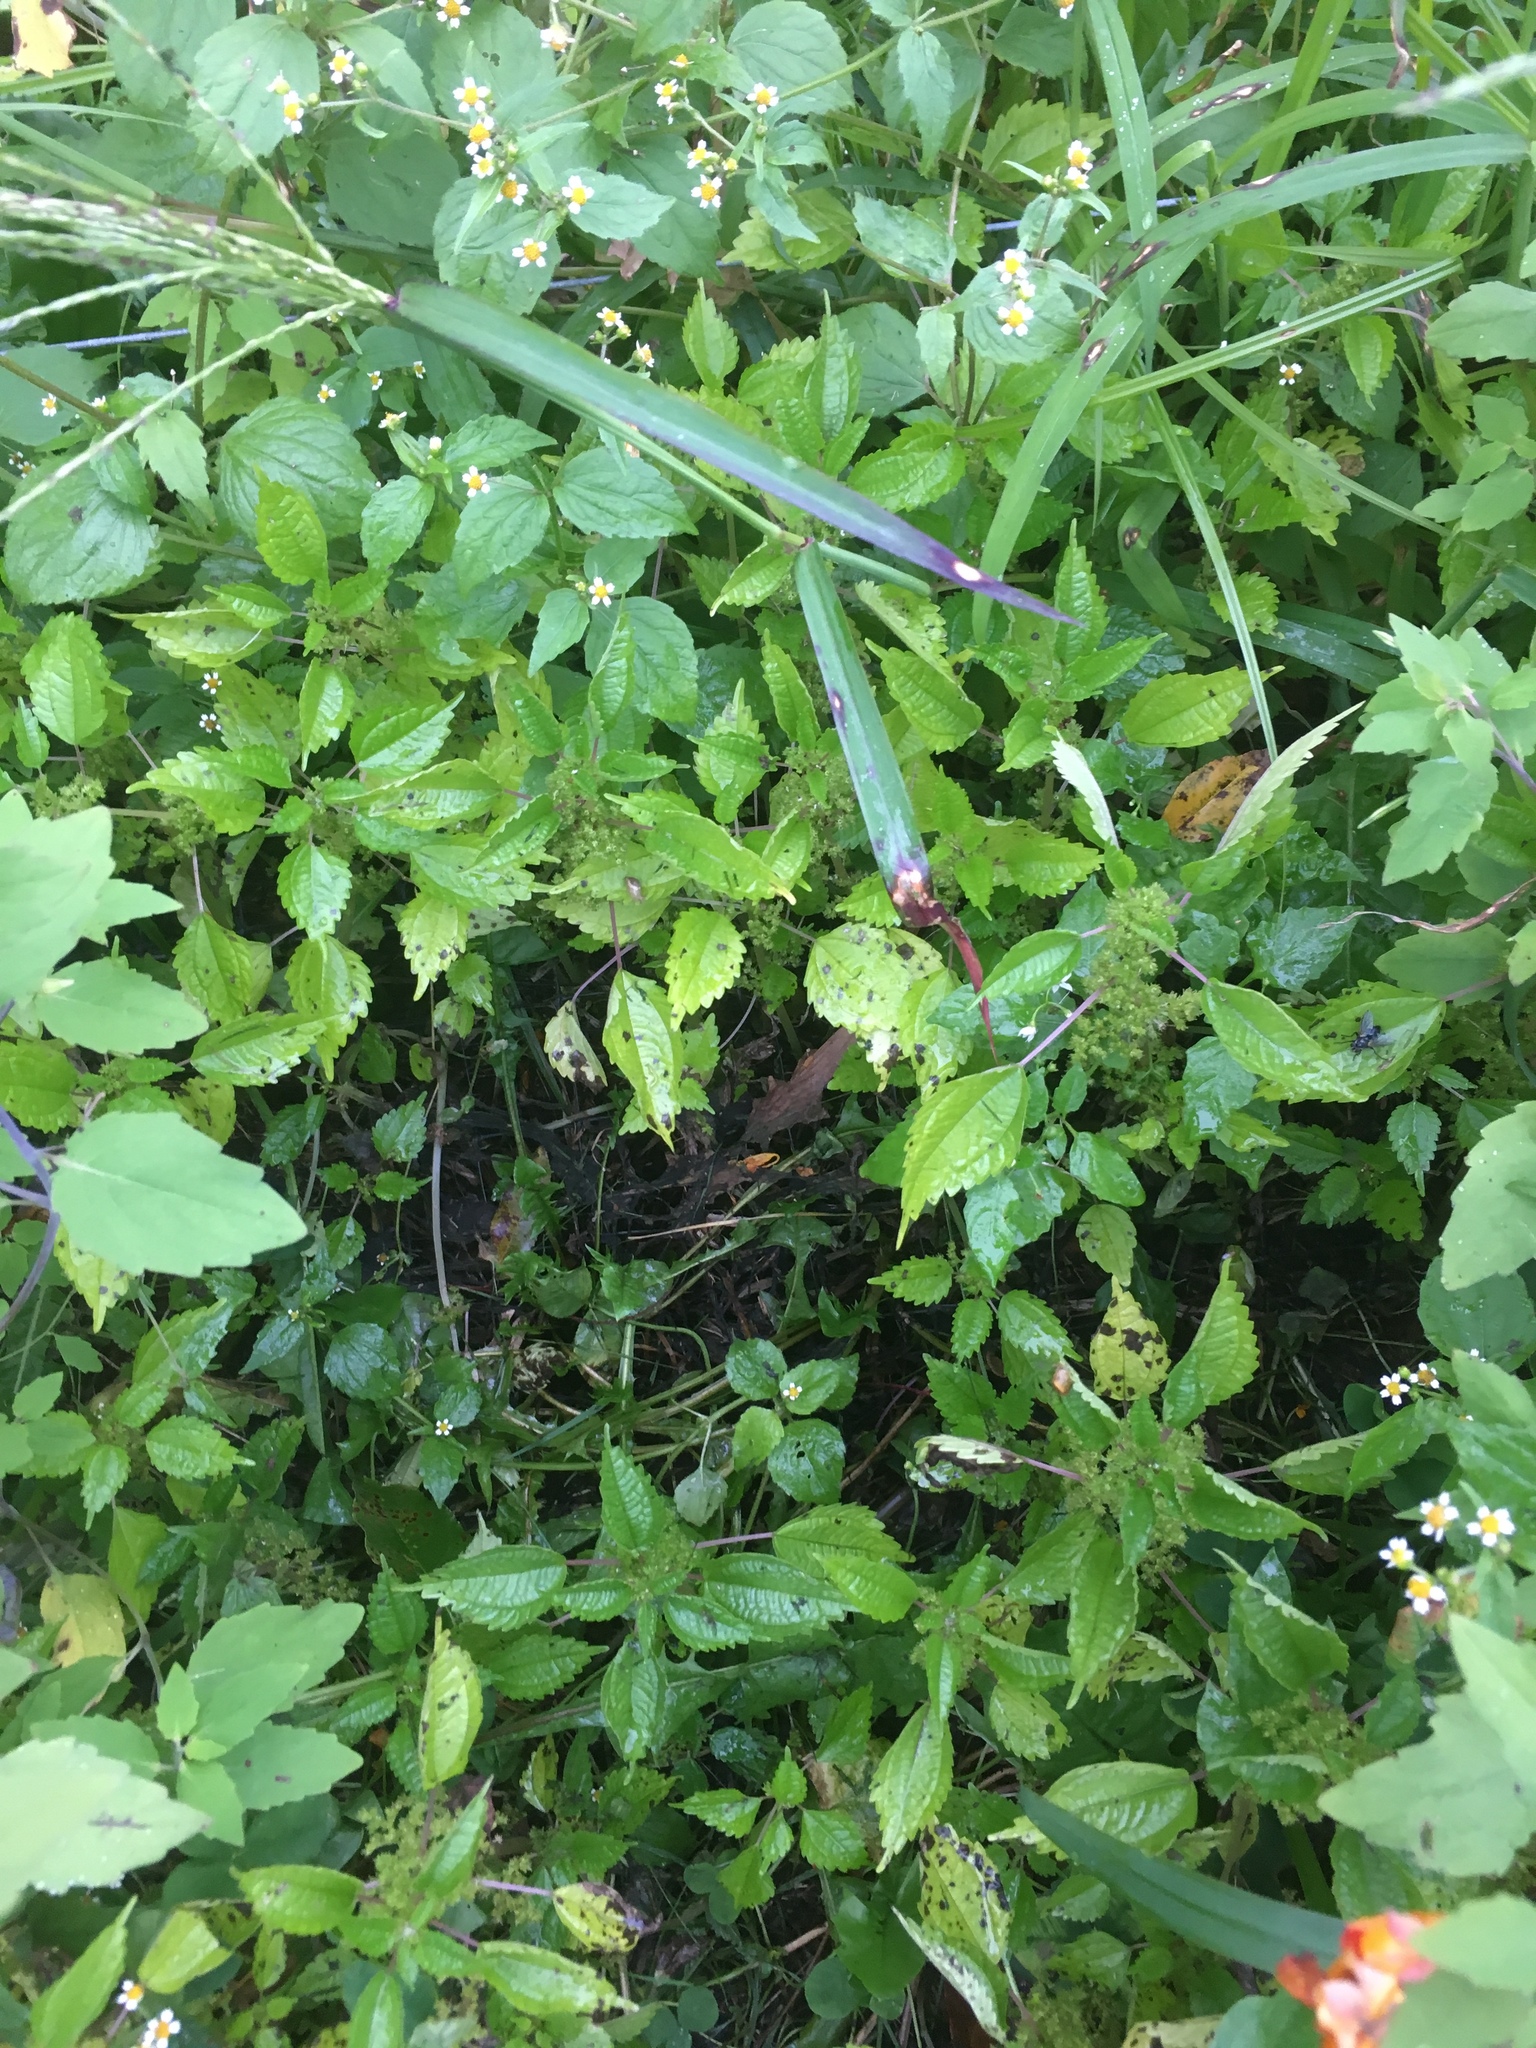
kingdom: Plantae
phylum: Tracheophyta
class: Magnoliopsida
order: Rosales
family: Urticaceae
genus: Pilea
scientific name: Pilea pumila
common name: Clearweed
